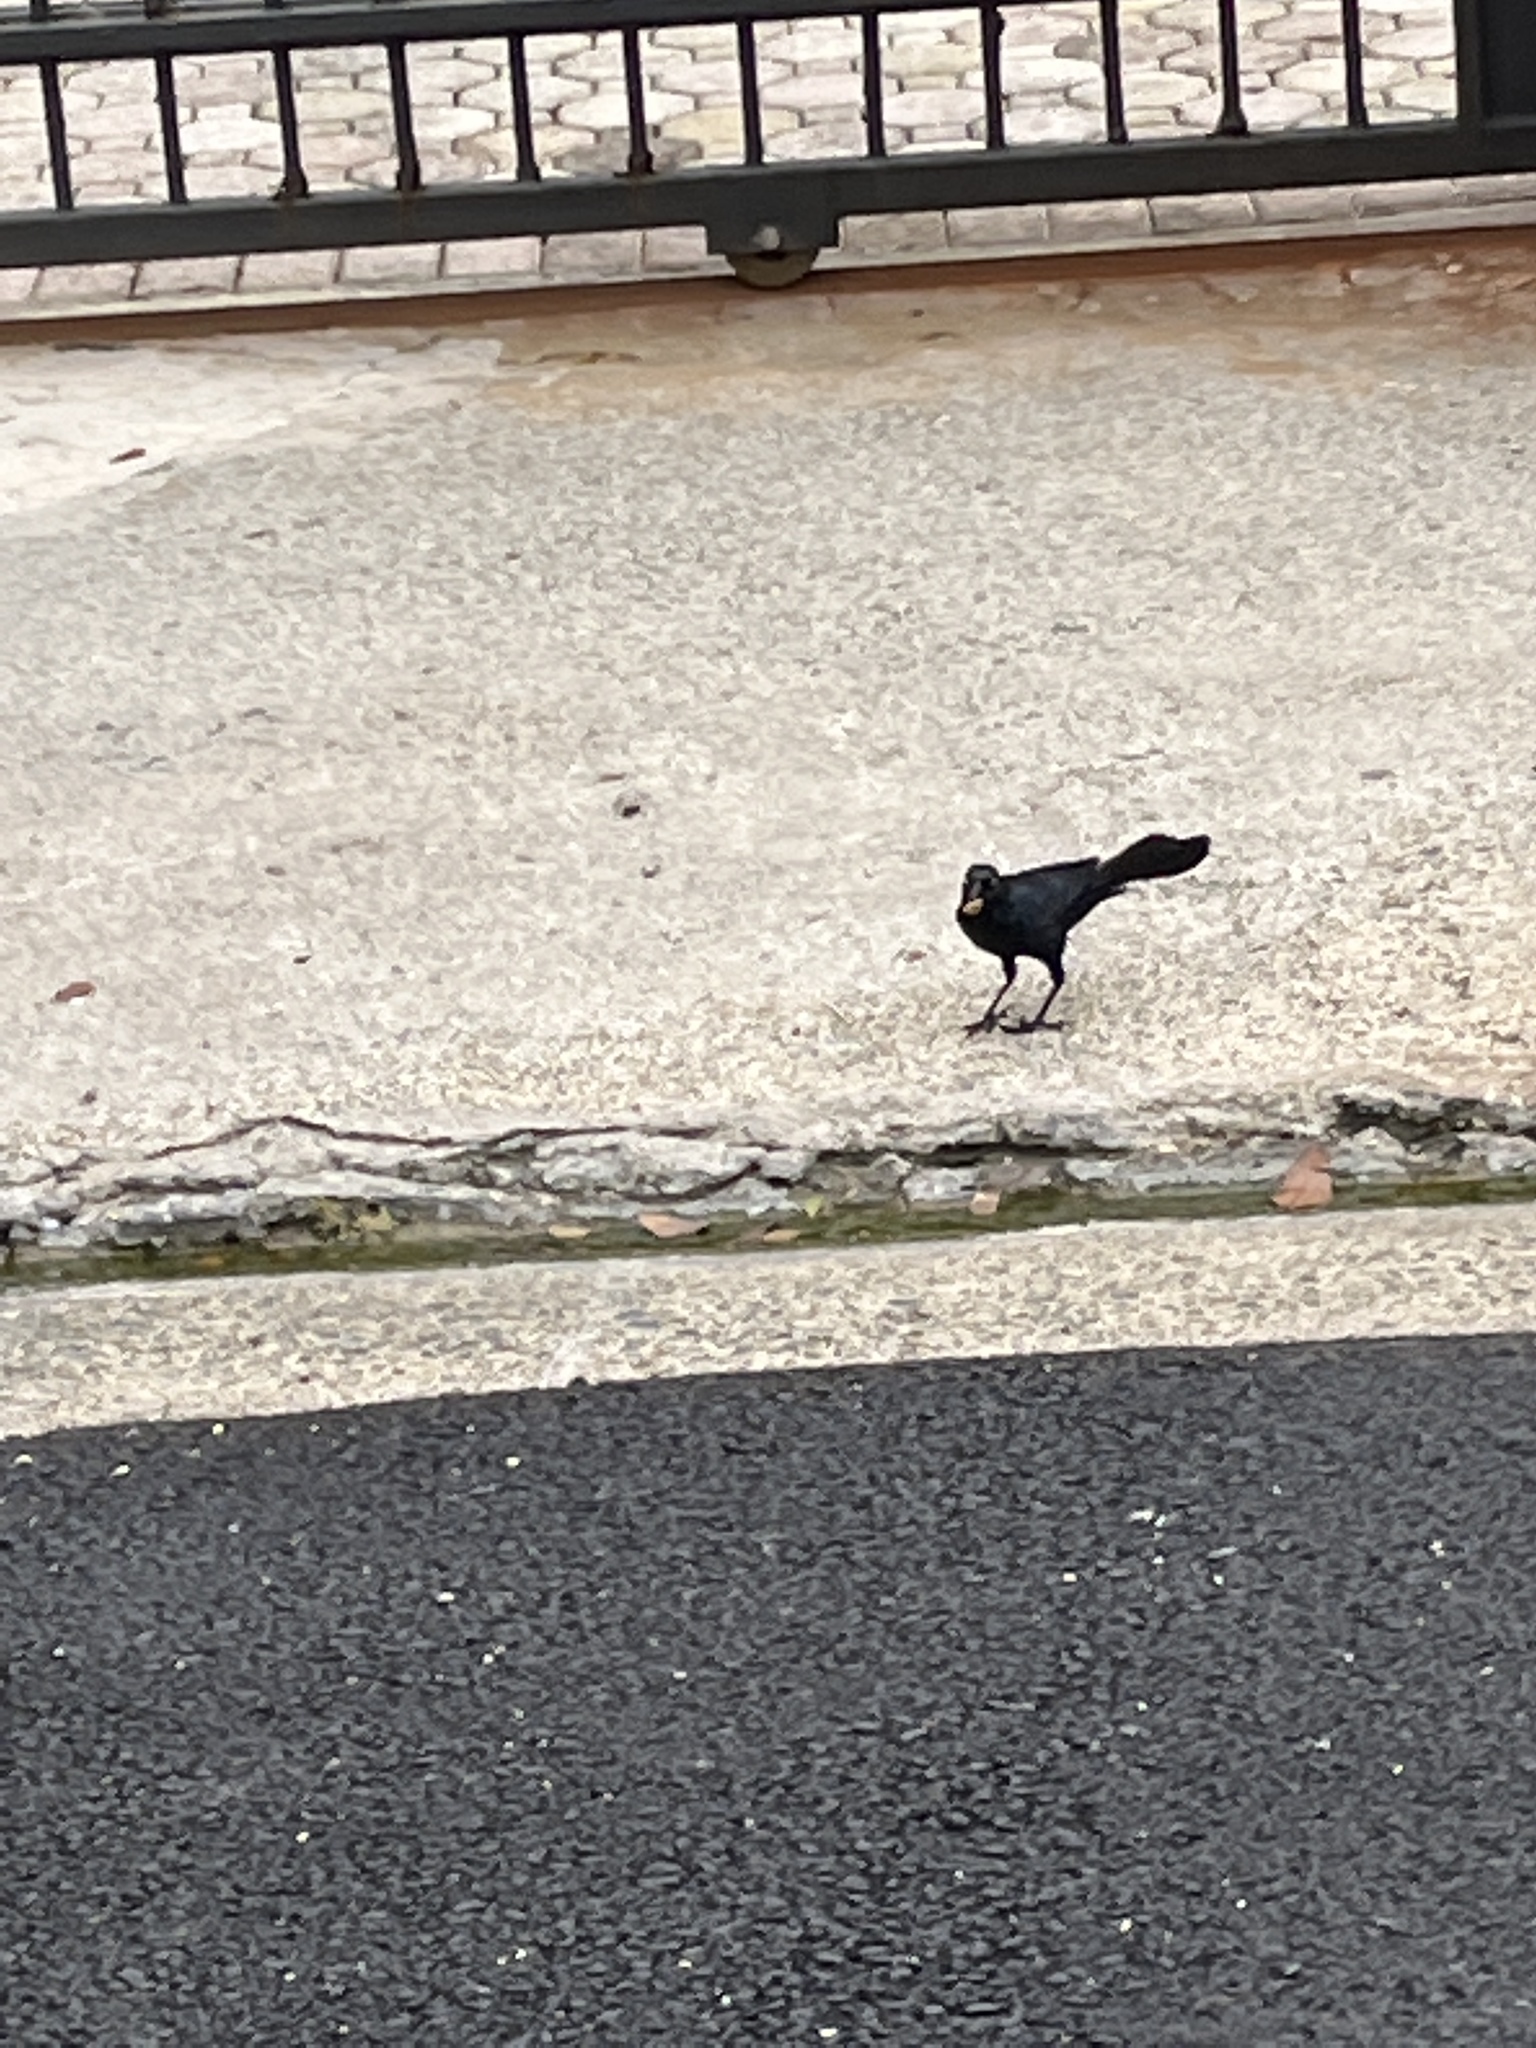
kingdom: Animalia
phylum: Chordata
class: Aves
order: Passeriformes
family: Icteridae
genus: Quiscalus
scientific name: Quiscalus niger
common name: Greater antillean grackle
